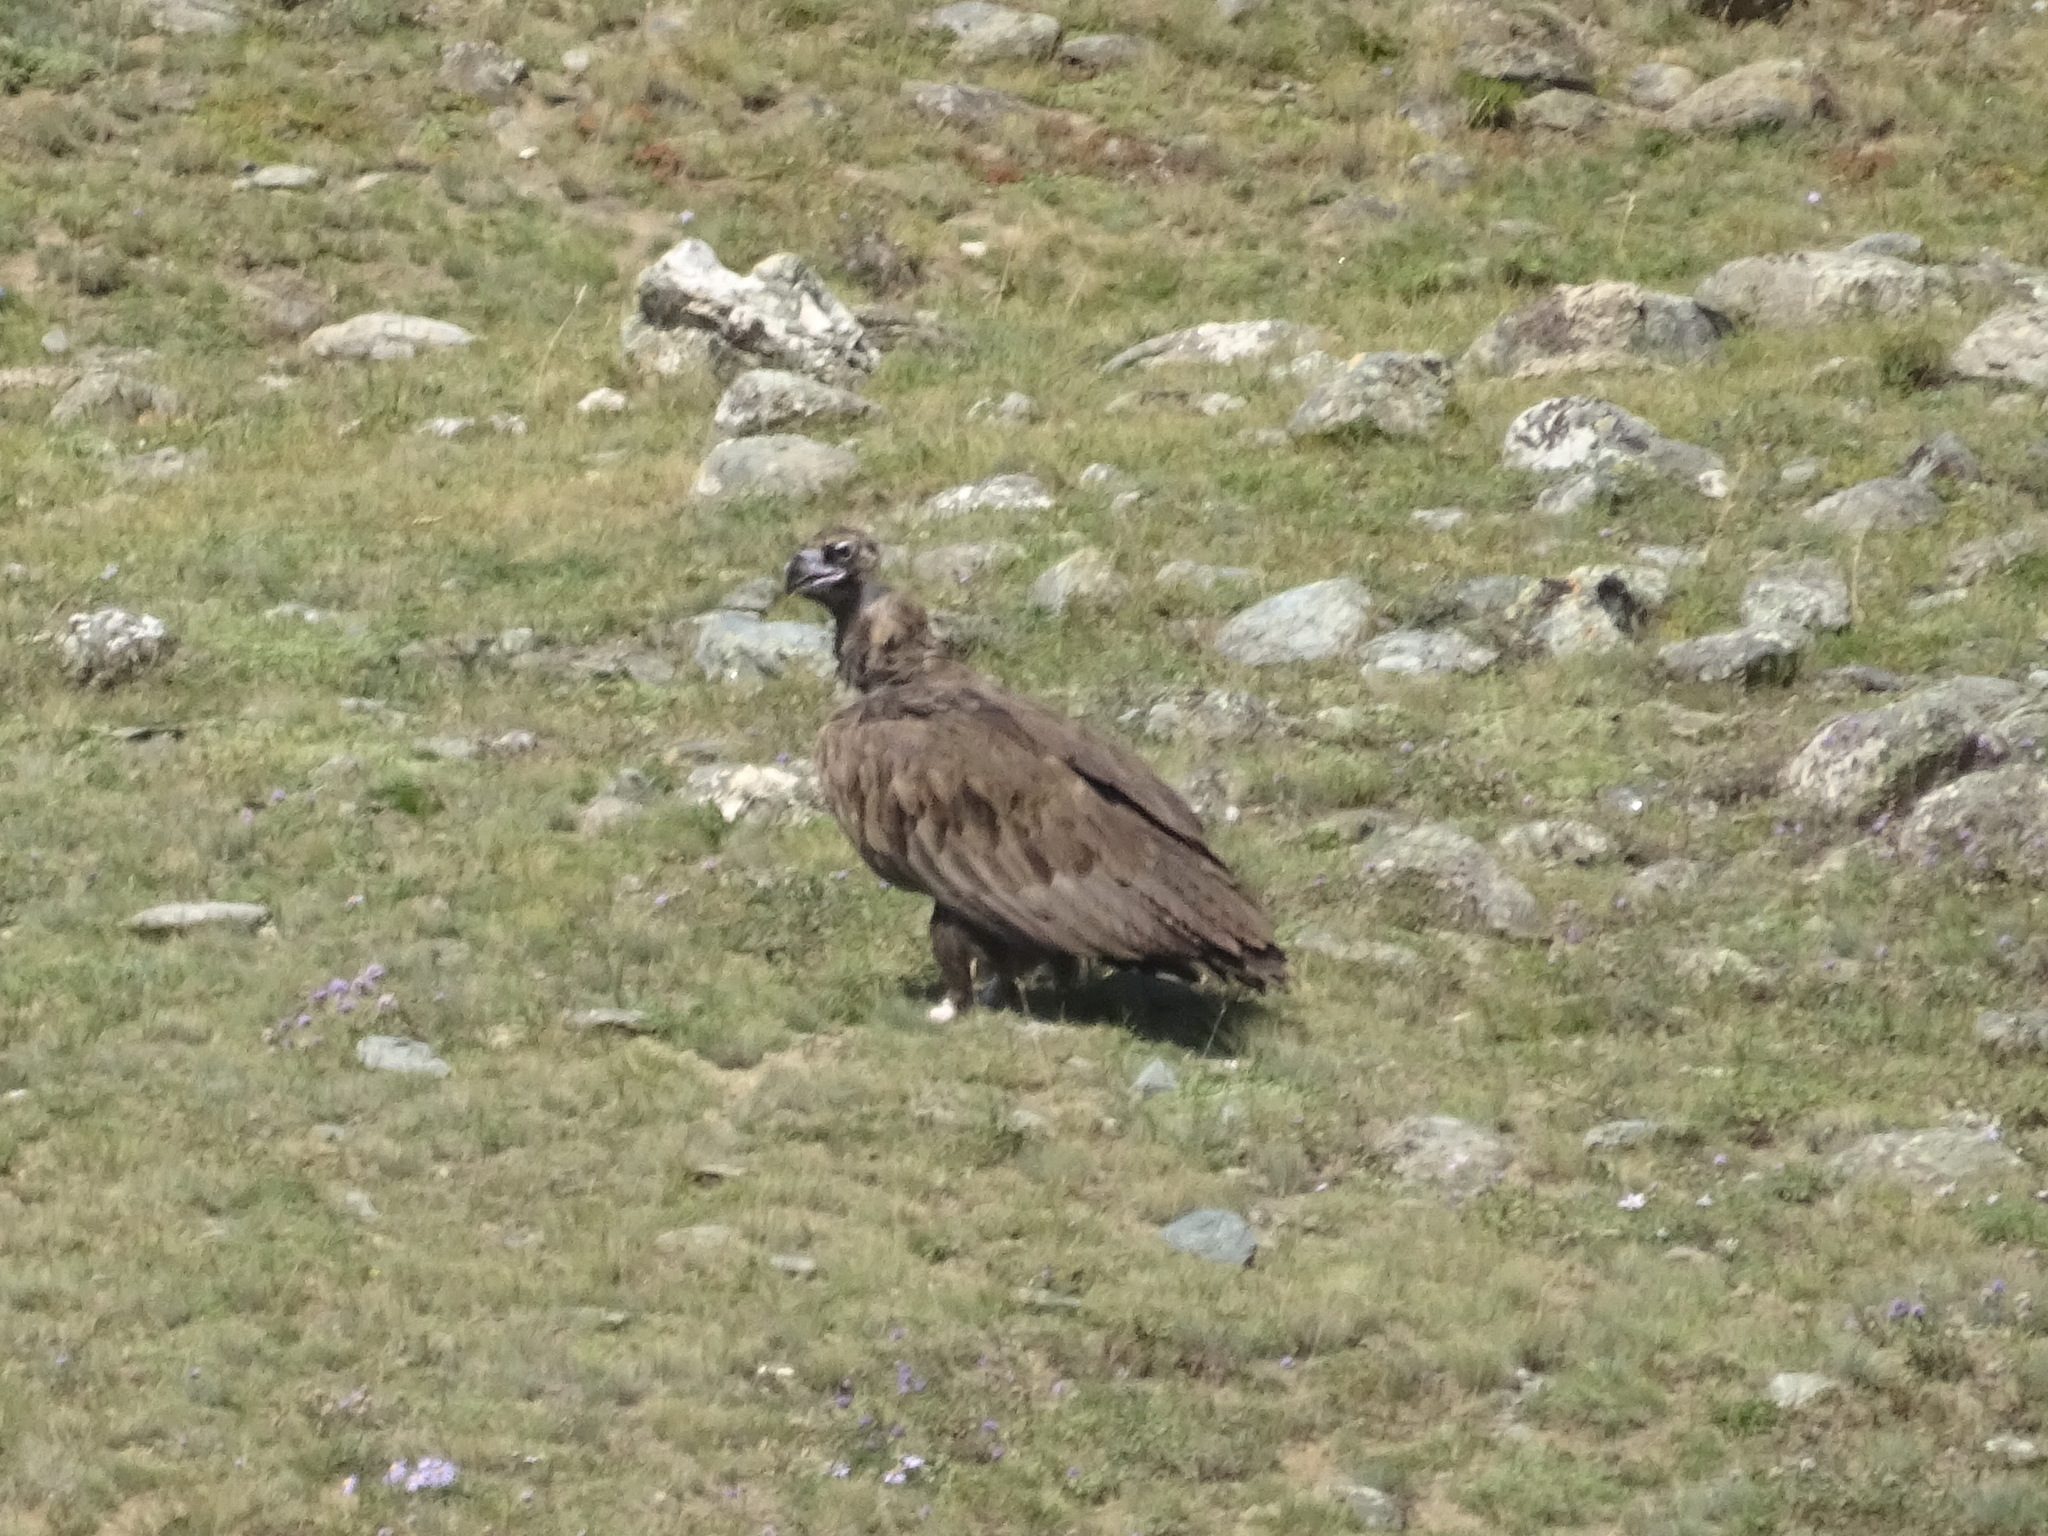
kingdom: Animalia
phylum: Chordata
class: Aves
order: Accipitriformes
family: Accipitridae
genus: Aegypius
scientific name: Aegypius monachus
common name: Cinereous vulture
